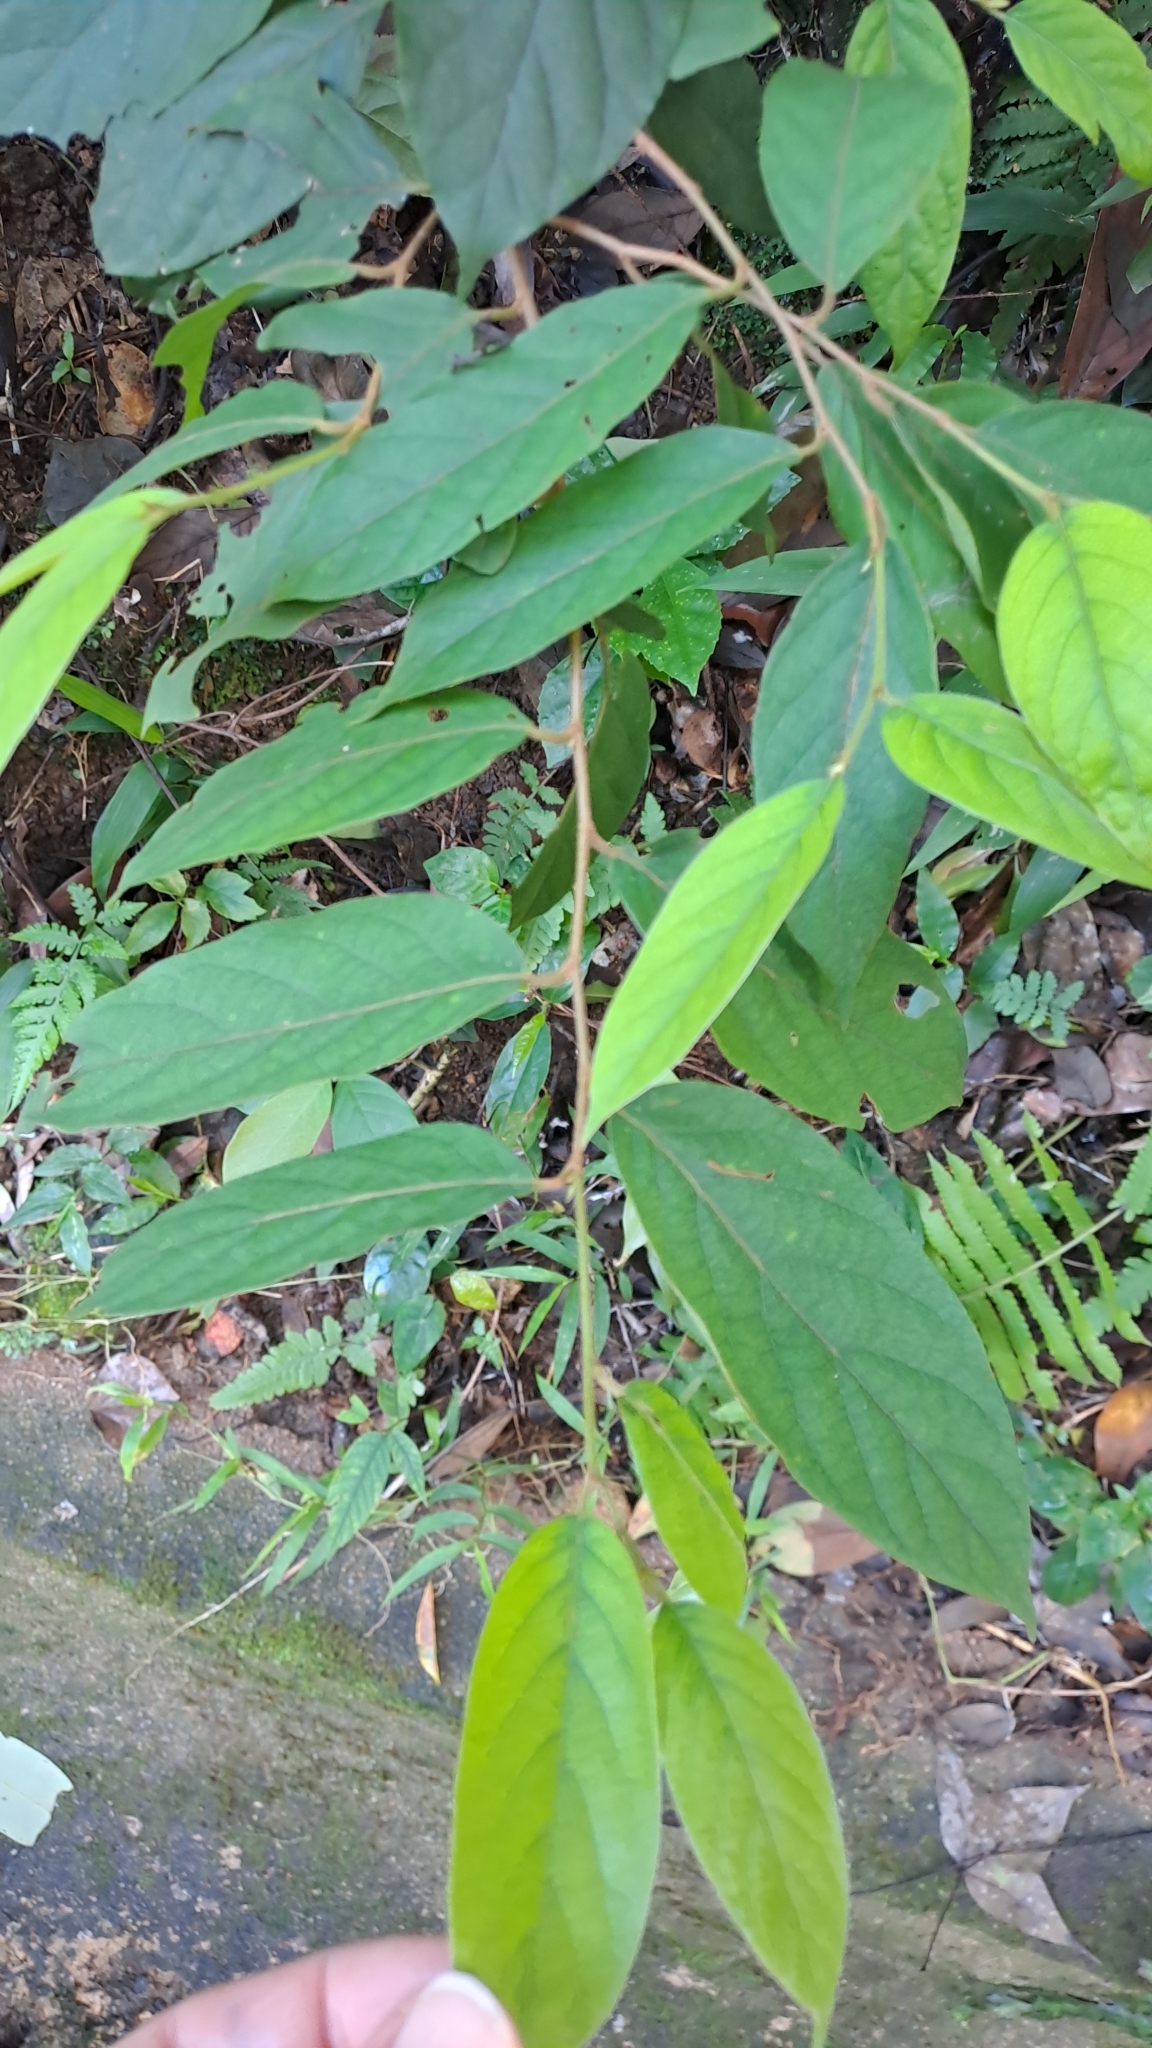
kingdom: Plantae
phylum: Tracheophyta
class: Magnoliopsida
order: Malpighiales
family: Phyllanthaceae
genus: Glochidion
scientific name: Glochidion puberum
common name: Needlebush
